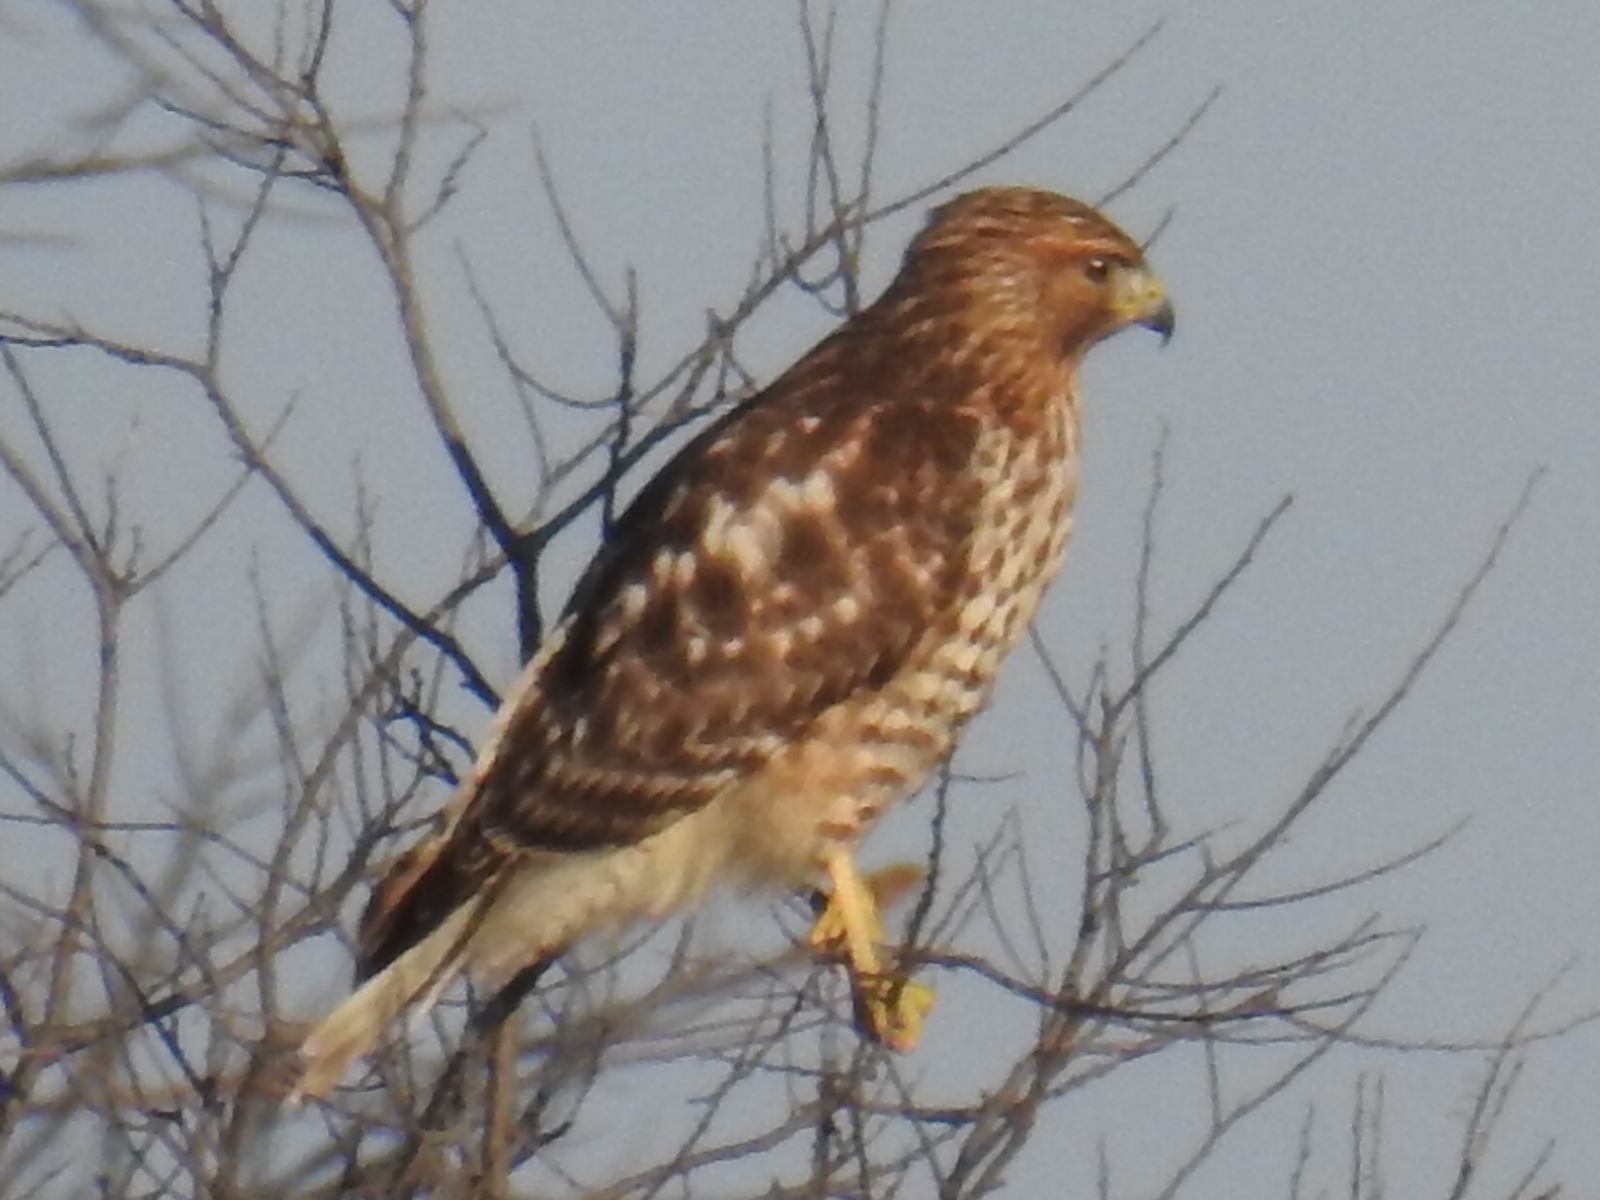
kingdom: Animalia
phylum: Chordata
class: Aves
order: Accipitriformes
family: Accipitridae
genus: Buteo
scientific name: Buteo lineatus
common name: Red-shouldered hawk
